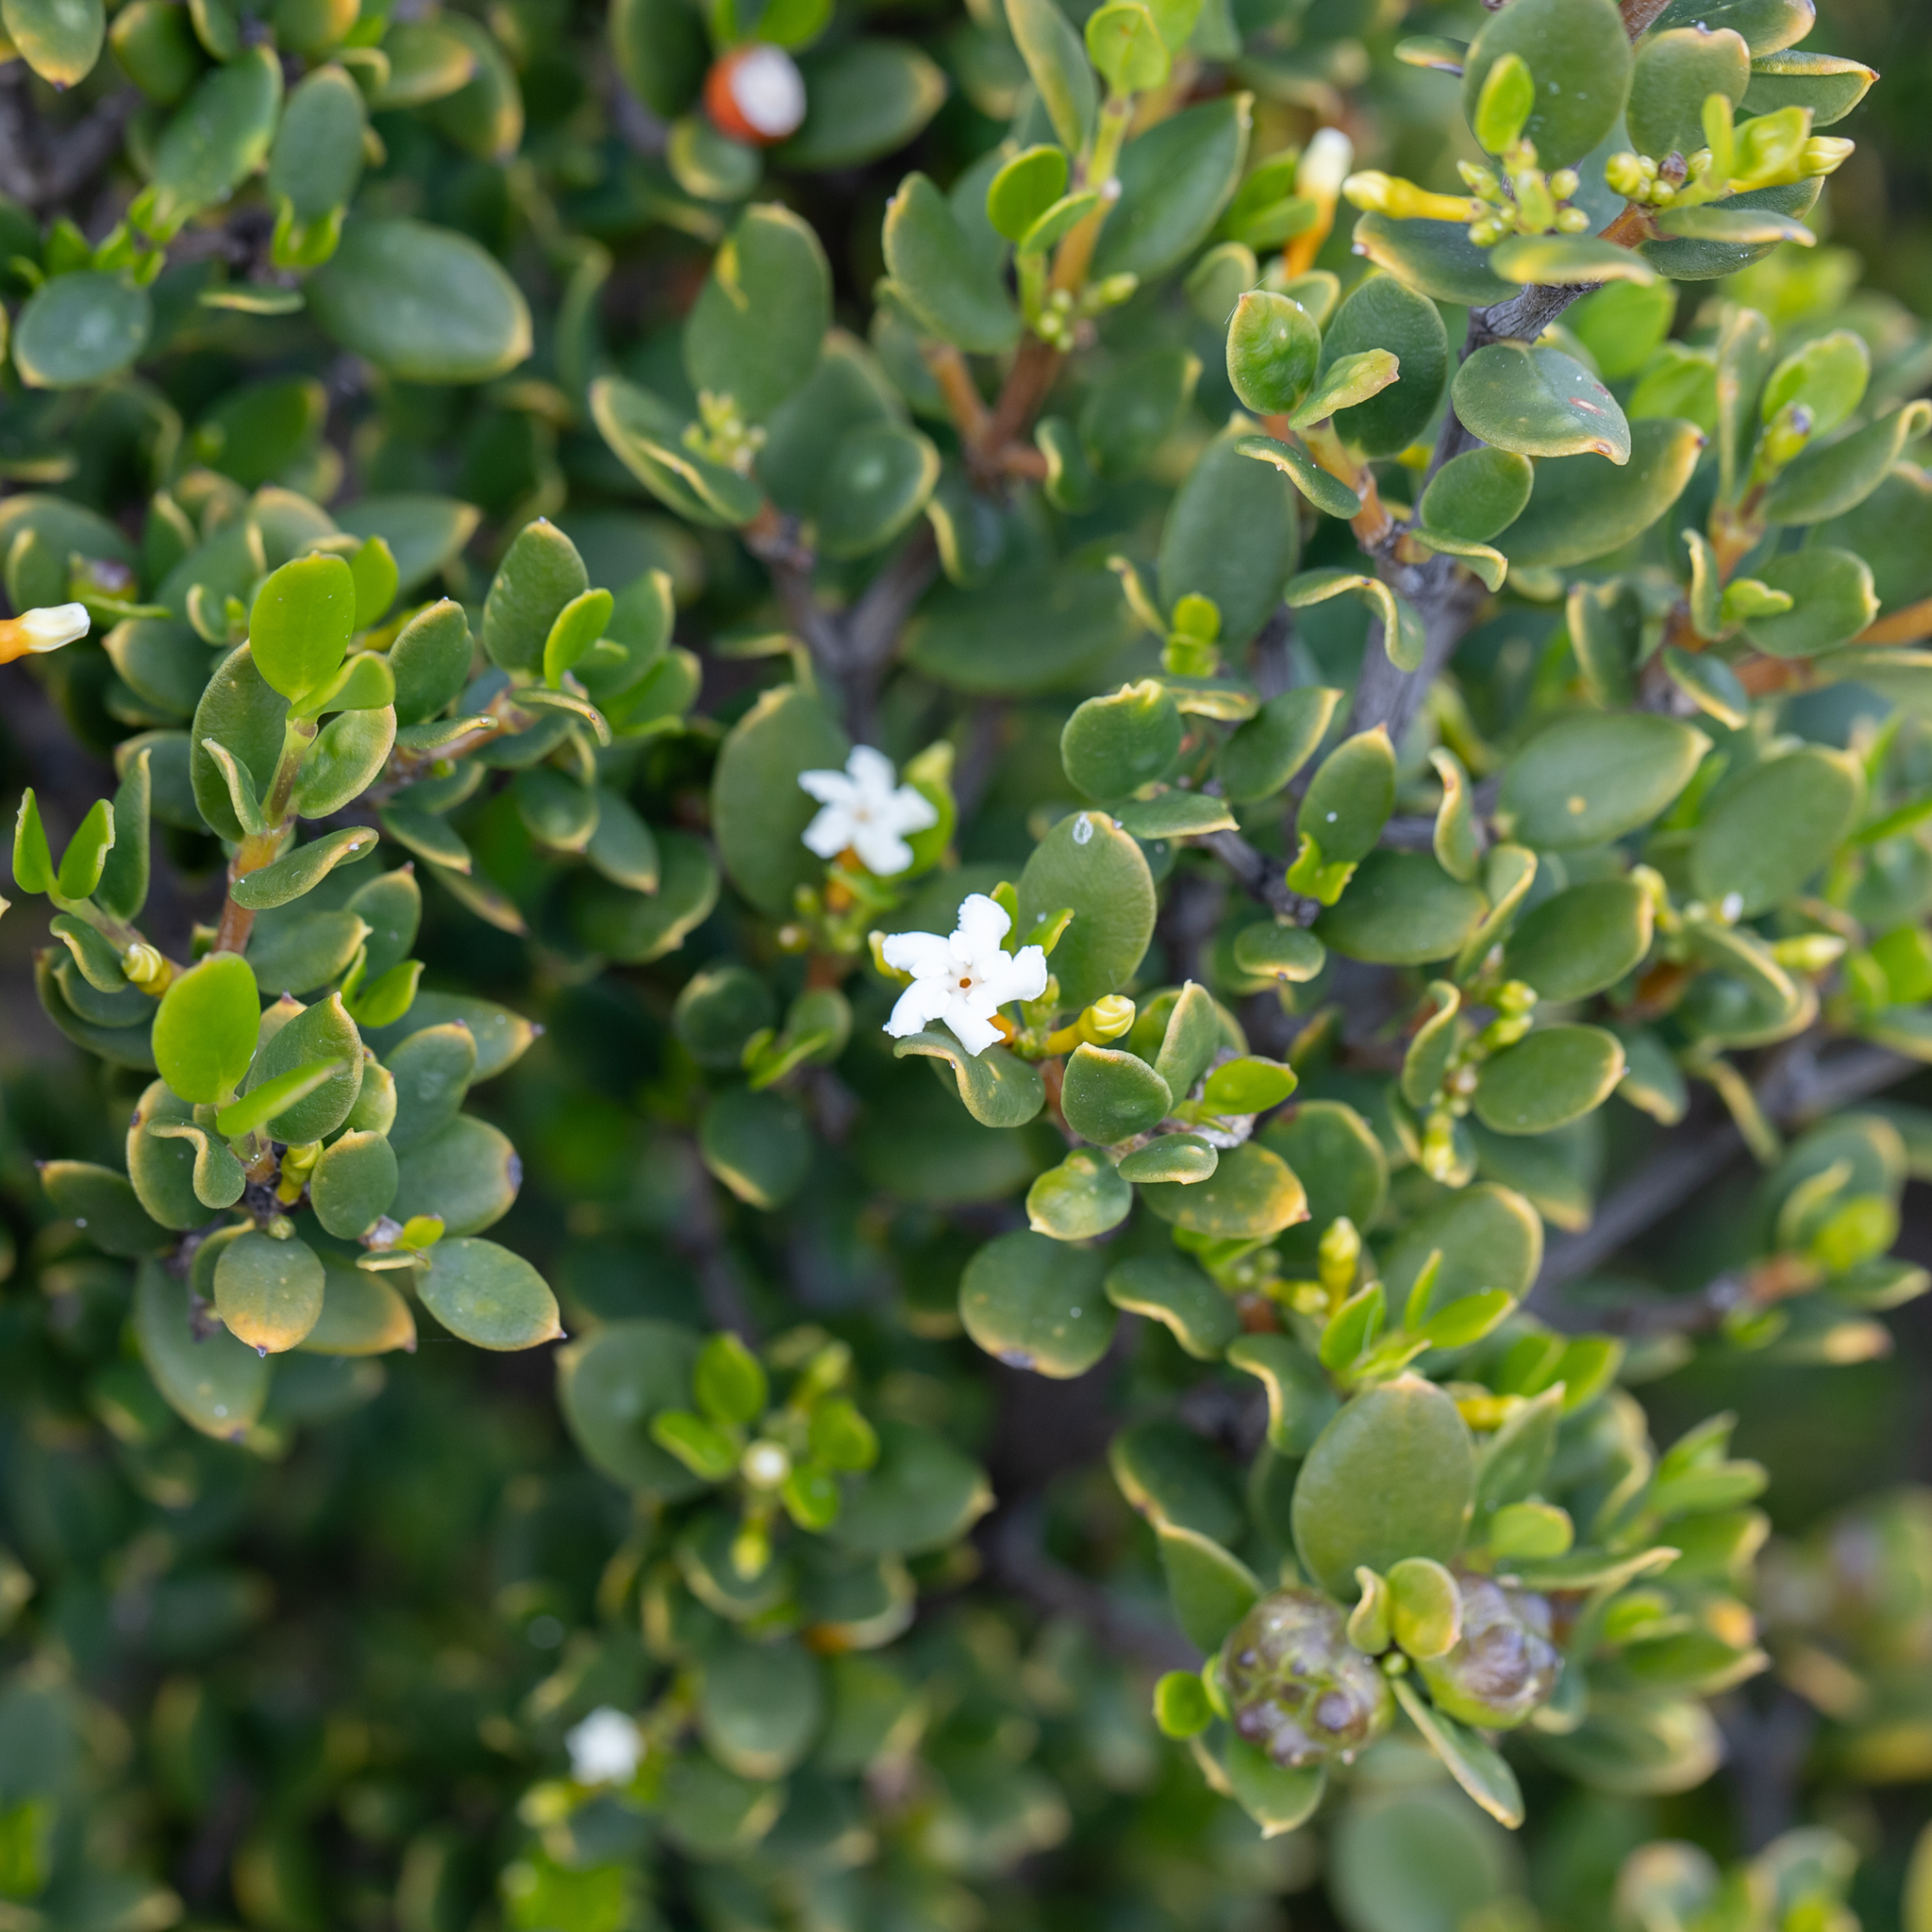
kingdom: Plantae
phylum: Tracheophyta
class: Magnoliopsida
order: Gentianales
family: Apocynaceae
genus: Alyxia
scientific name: Alyxia buxifolia
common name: Dysentery-bush
